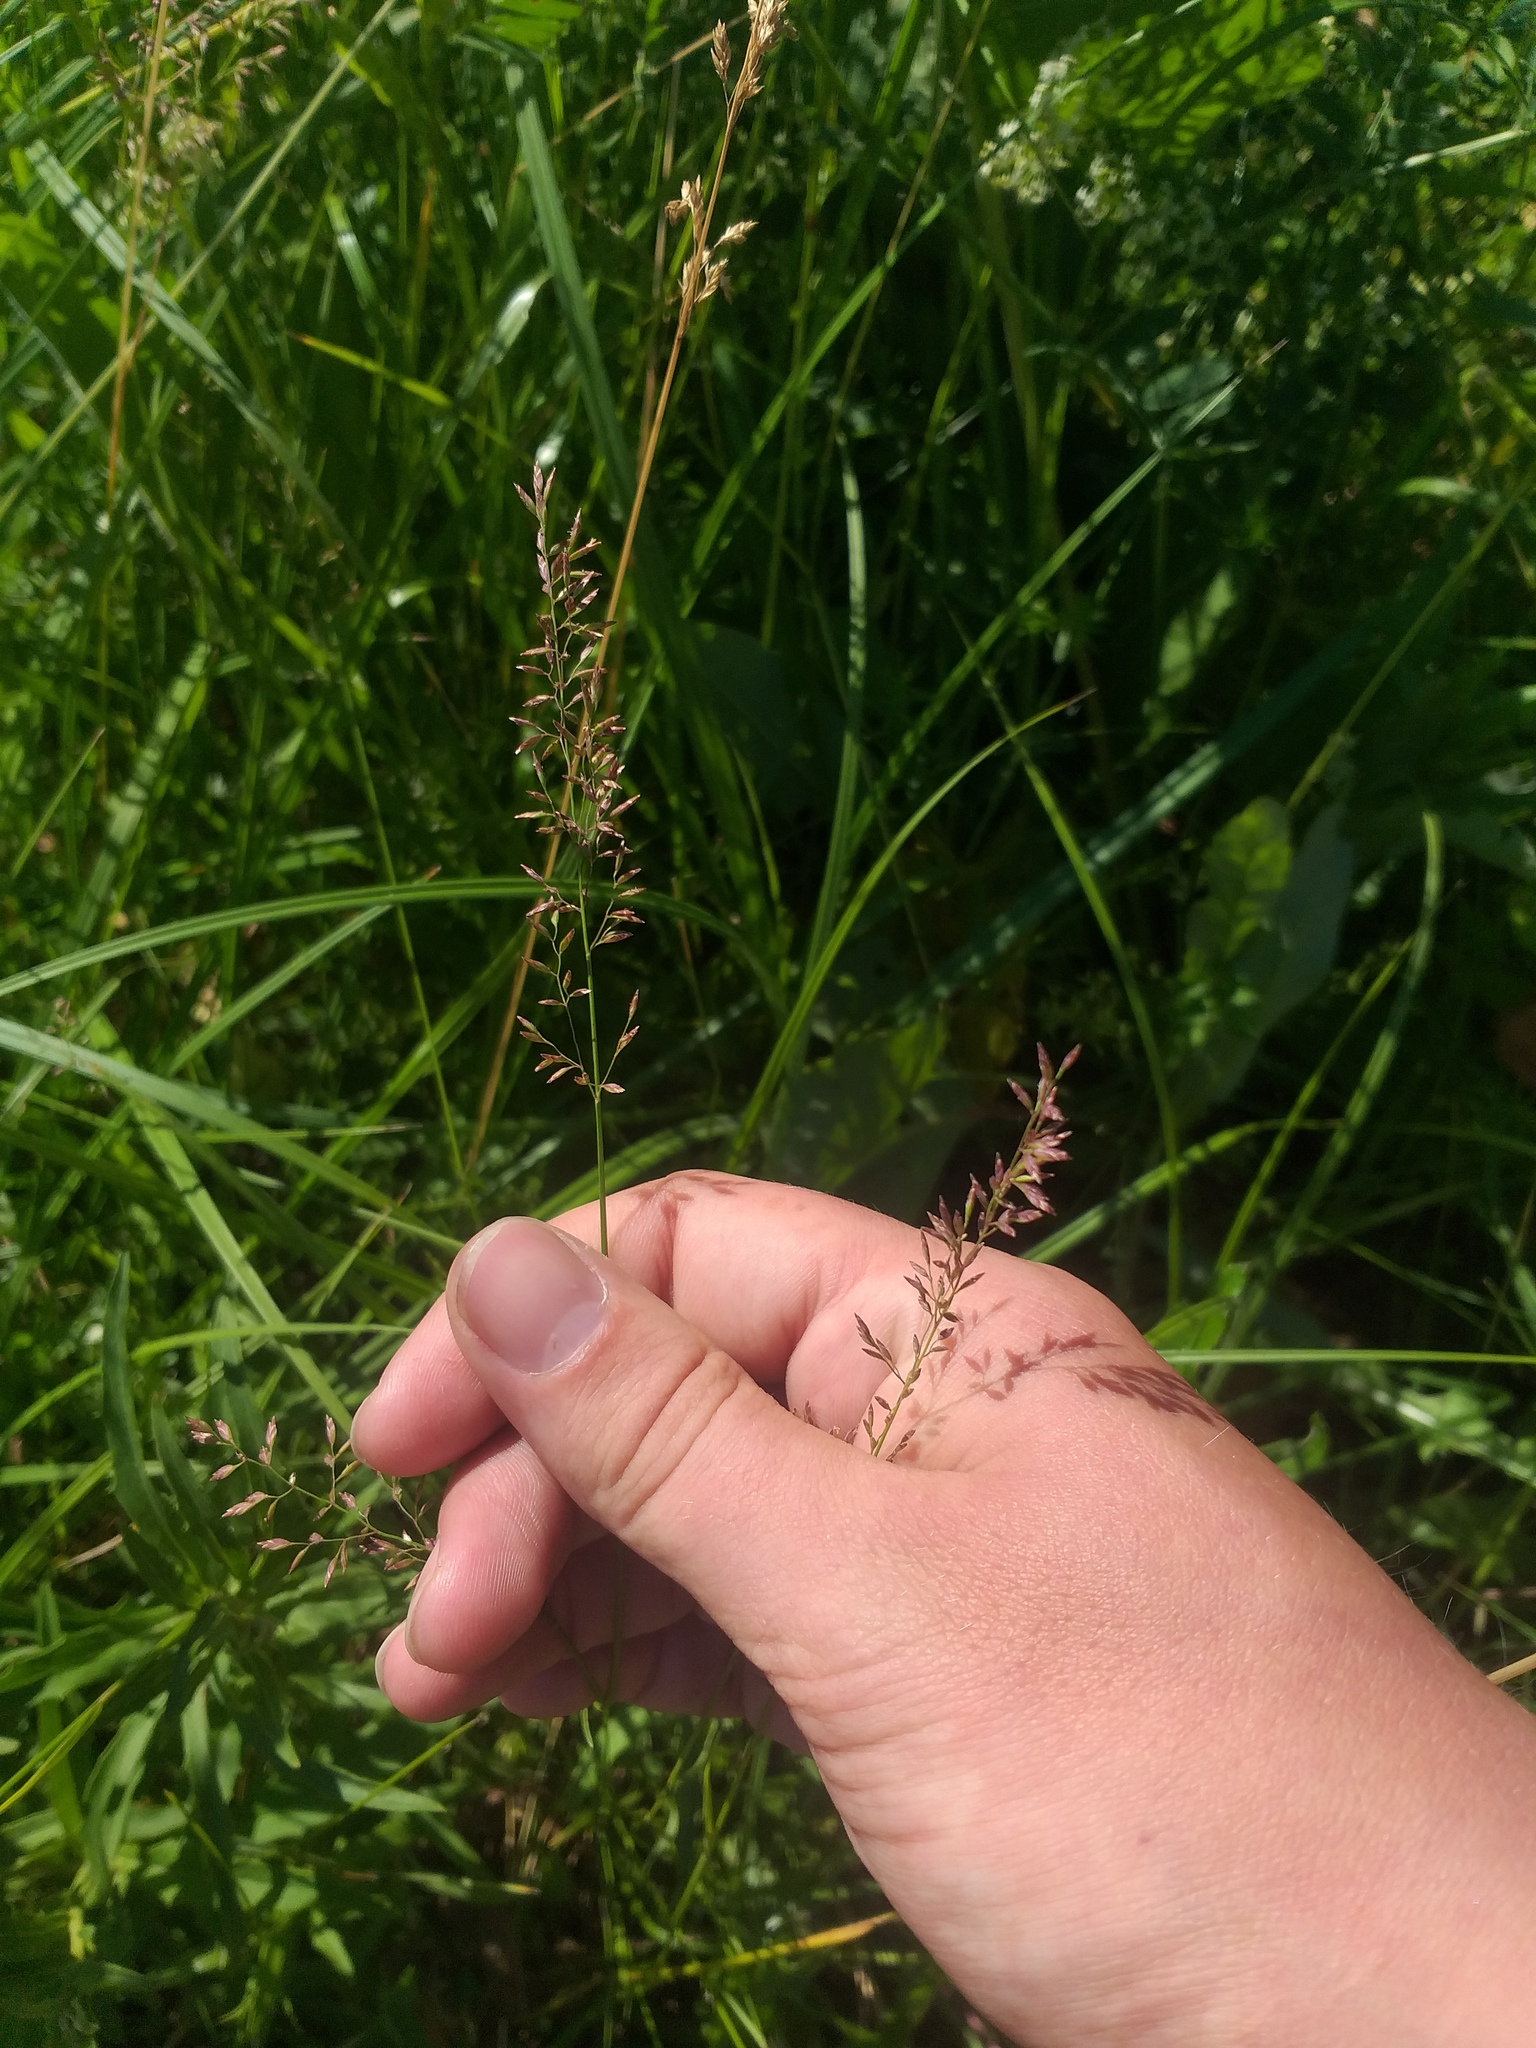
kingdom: Plantae
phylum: Tracheophyta
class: Liliopsida
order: Poales
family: Poaceae
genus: Poa
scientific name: Poa compressa
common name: Canada bluegrass
